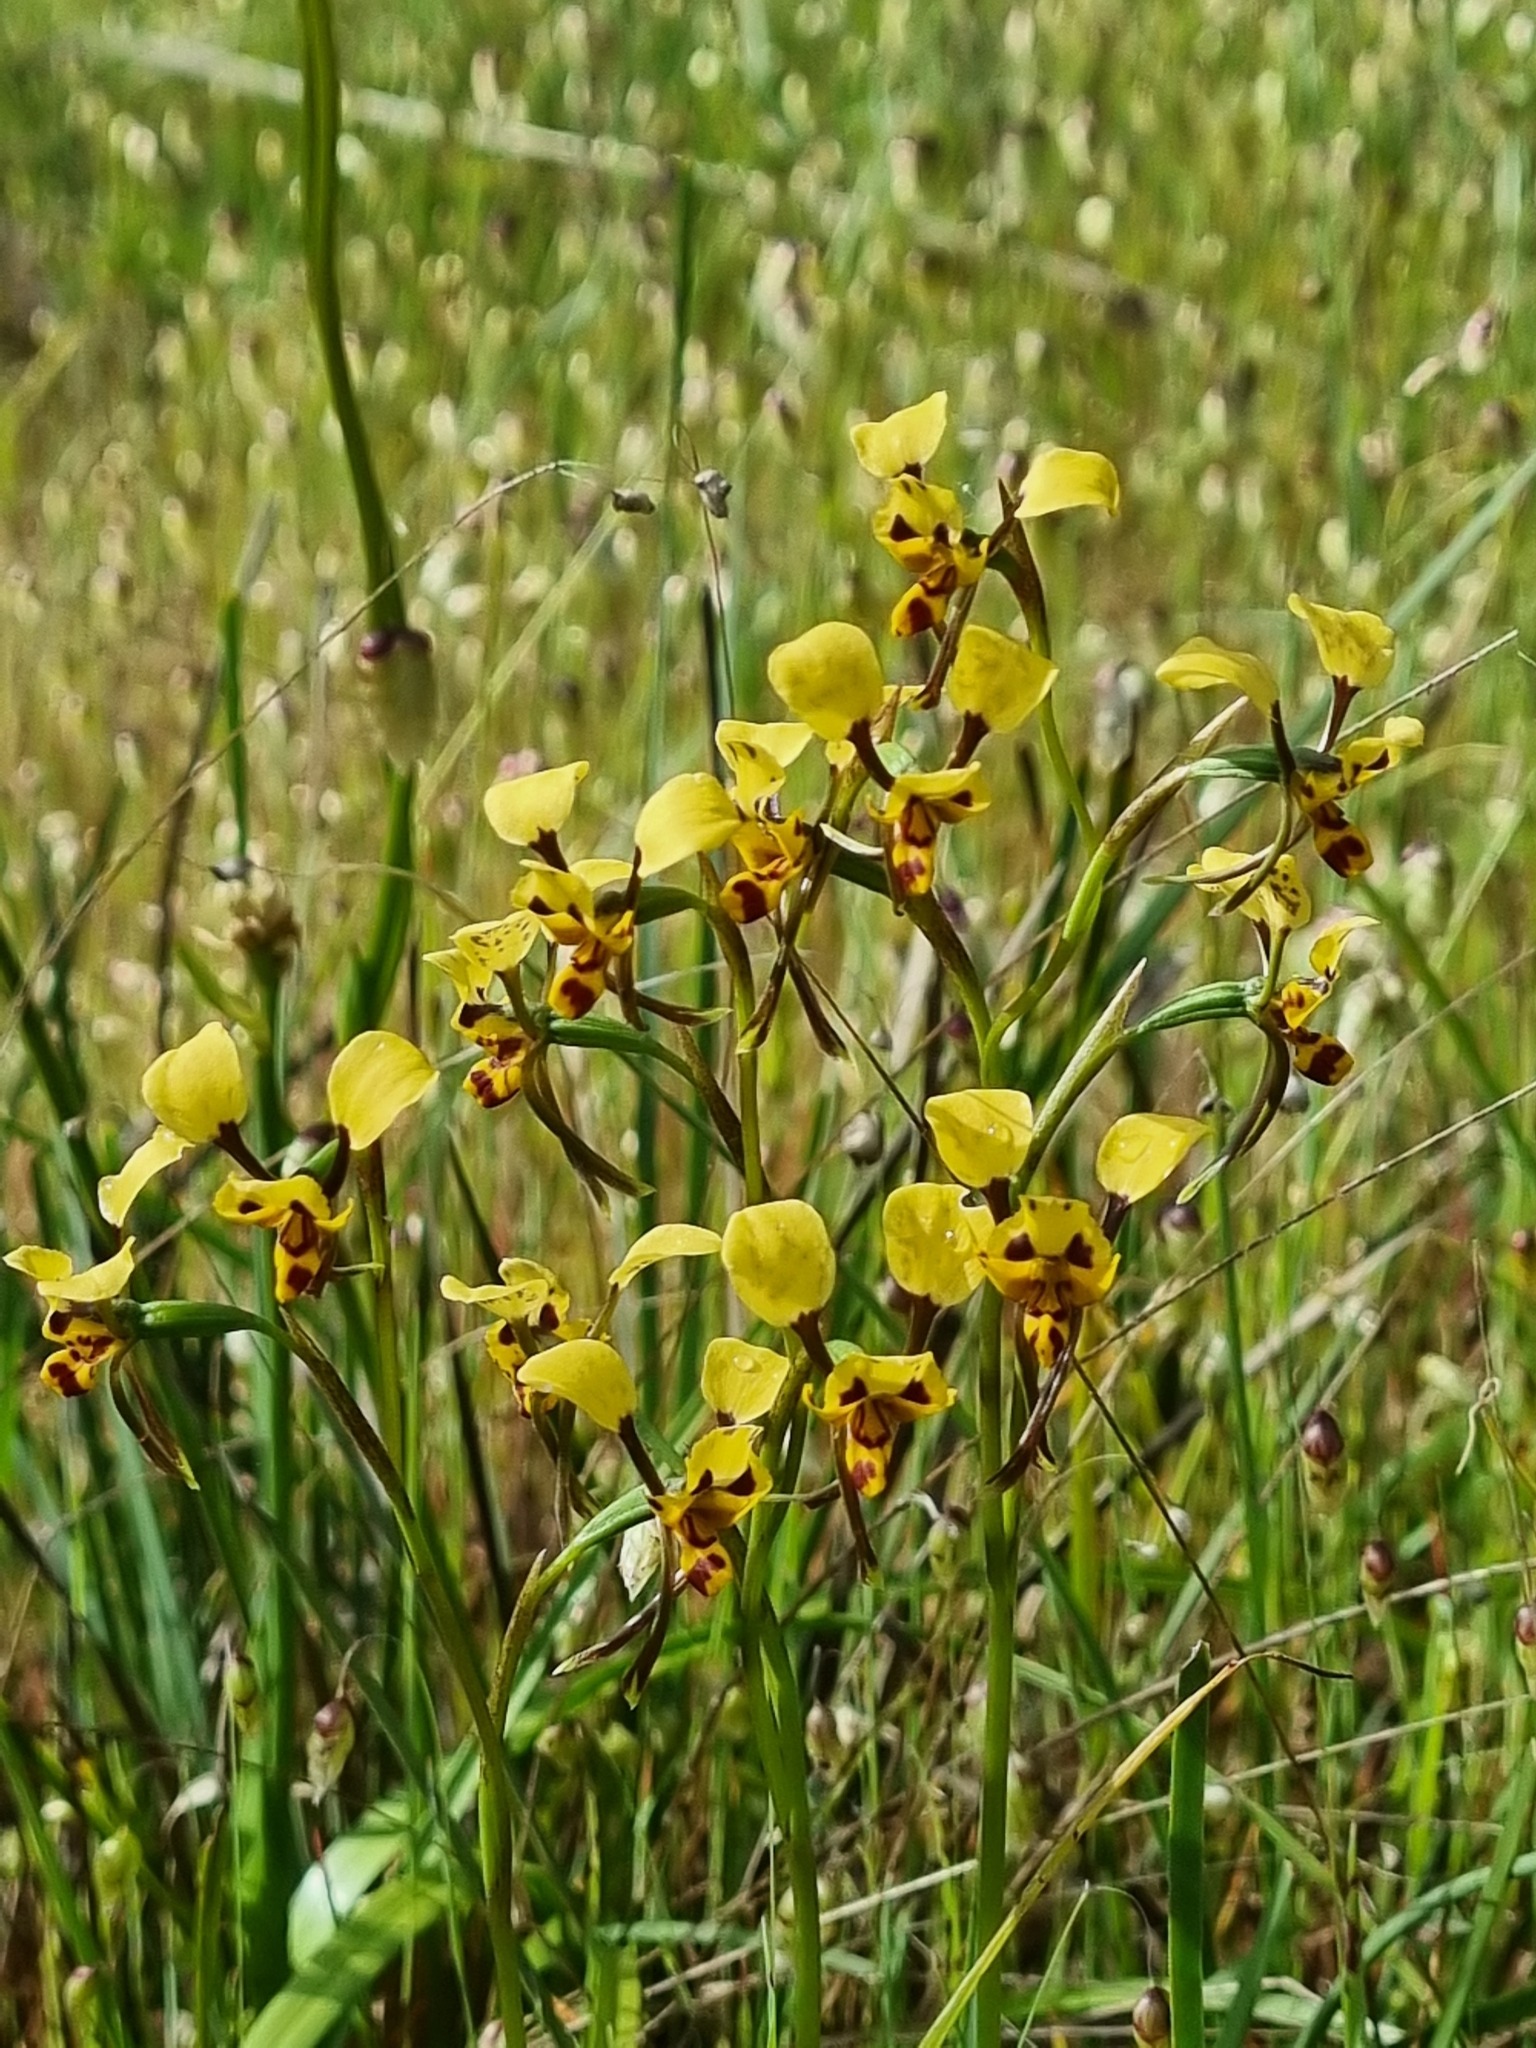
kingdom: Plantae
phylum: Tracheophyta
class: Liliopsida
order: Asparagales
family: Orchidaceae
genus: Diuris
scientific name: Diuris pardina
